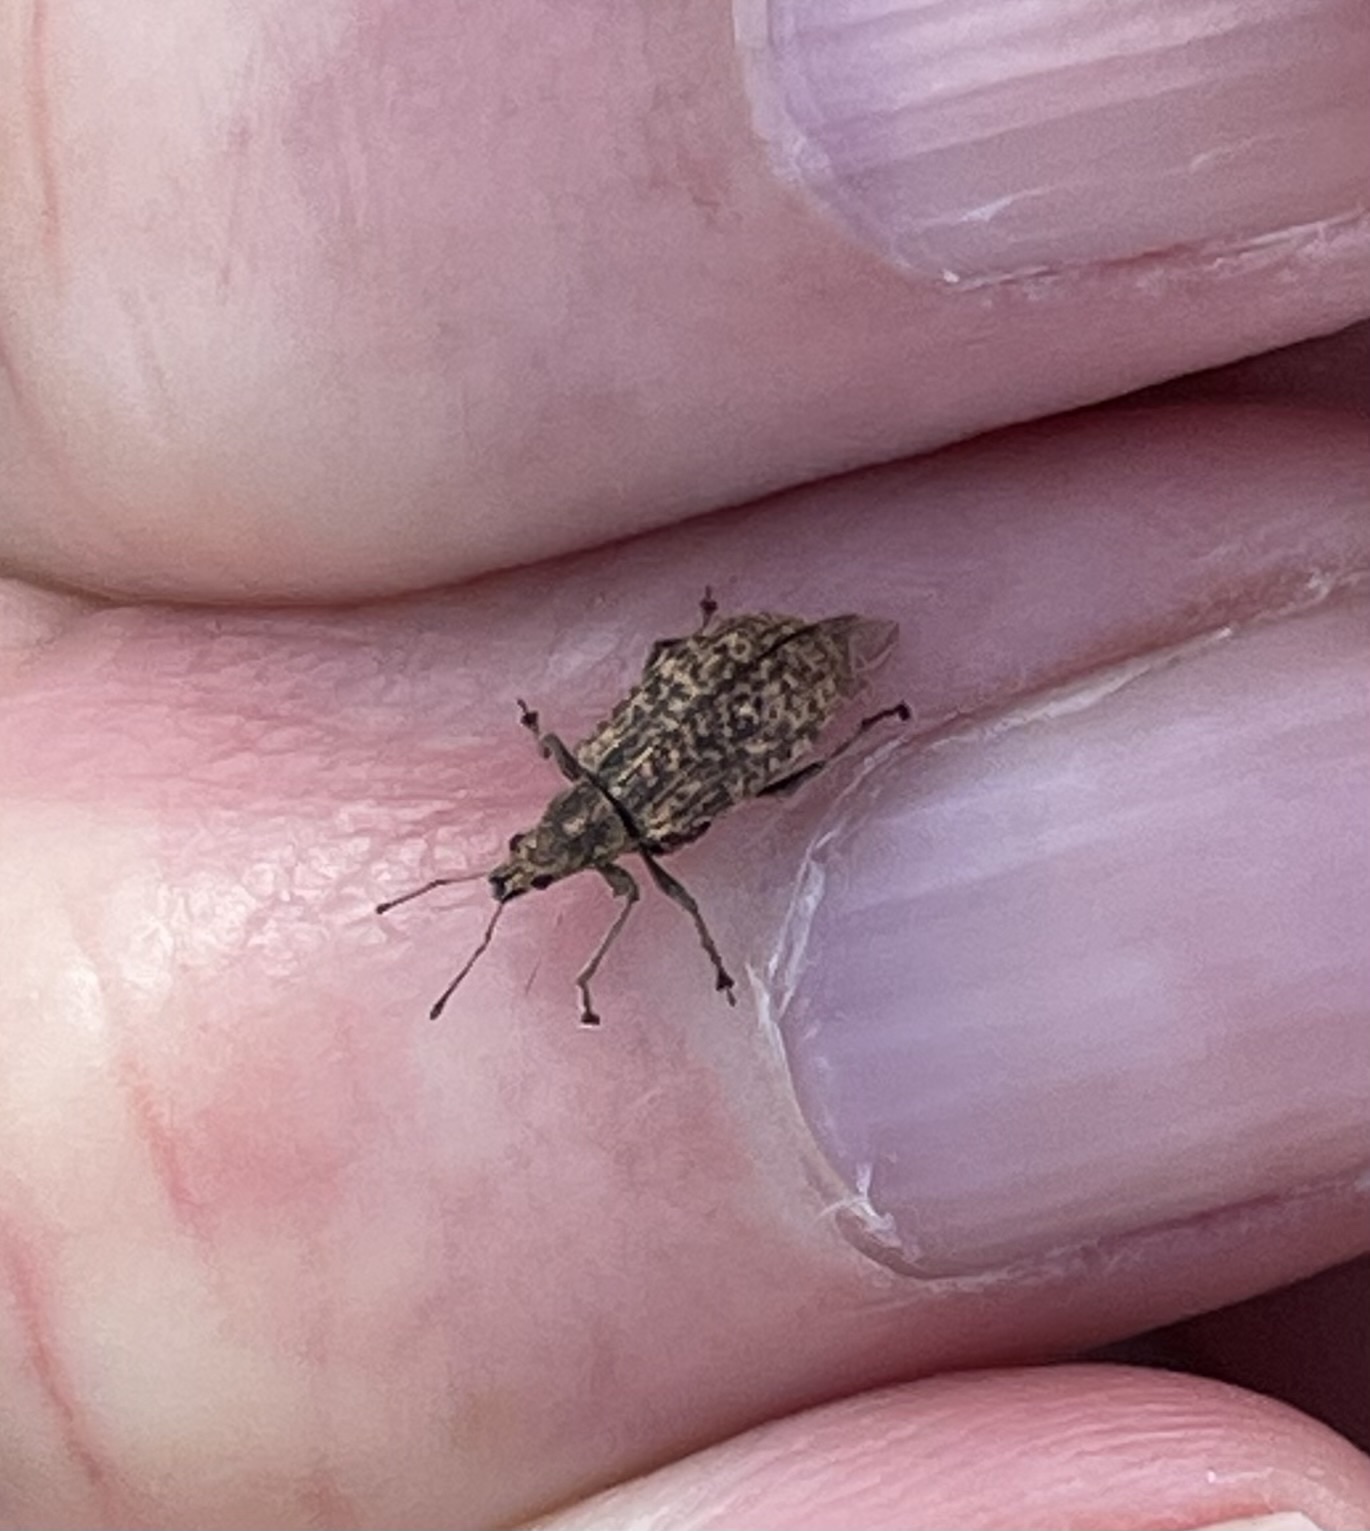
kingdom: Animalia
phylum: Arthropoda
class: Insecta
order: Coleoptera
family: Curculionidae
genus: Polydrusus
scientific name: Polydrusus cervinus
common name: Weevil
